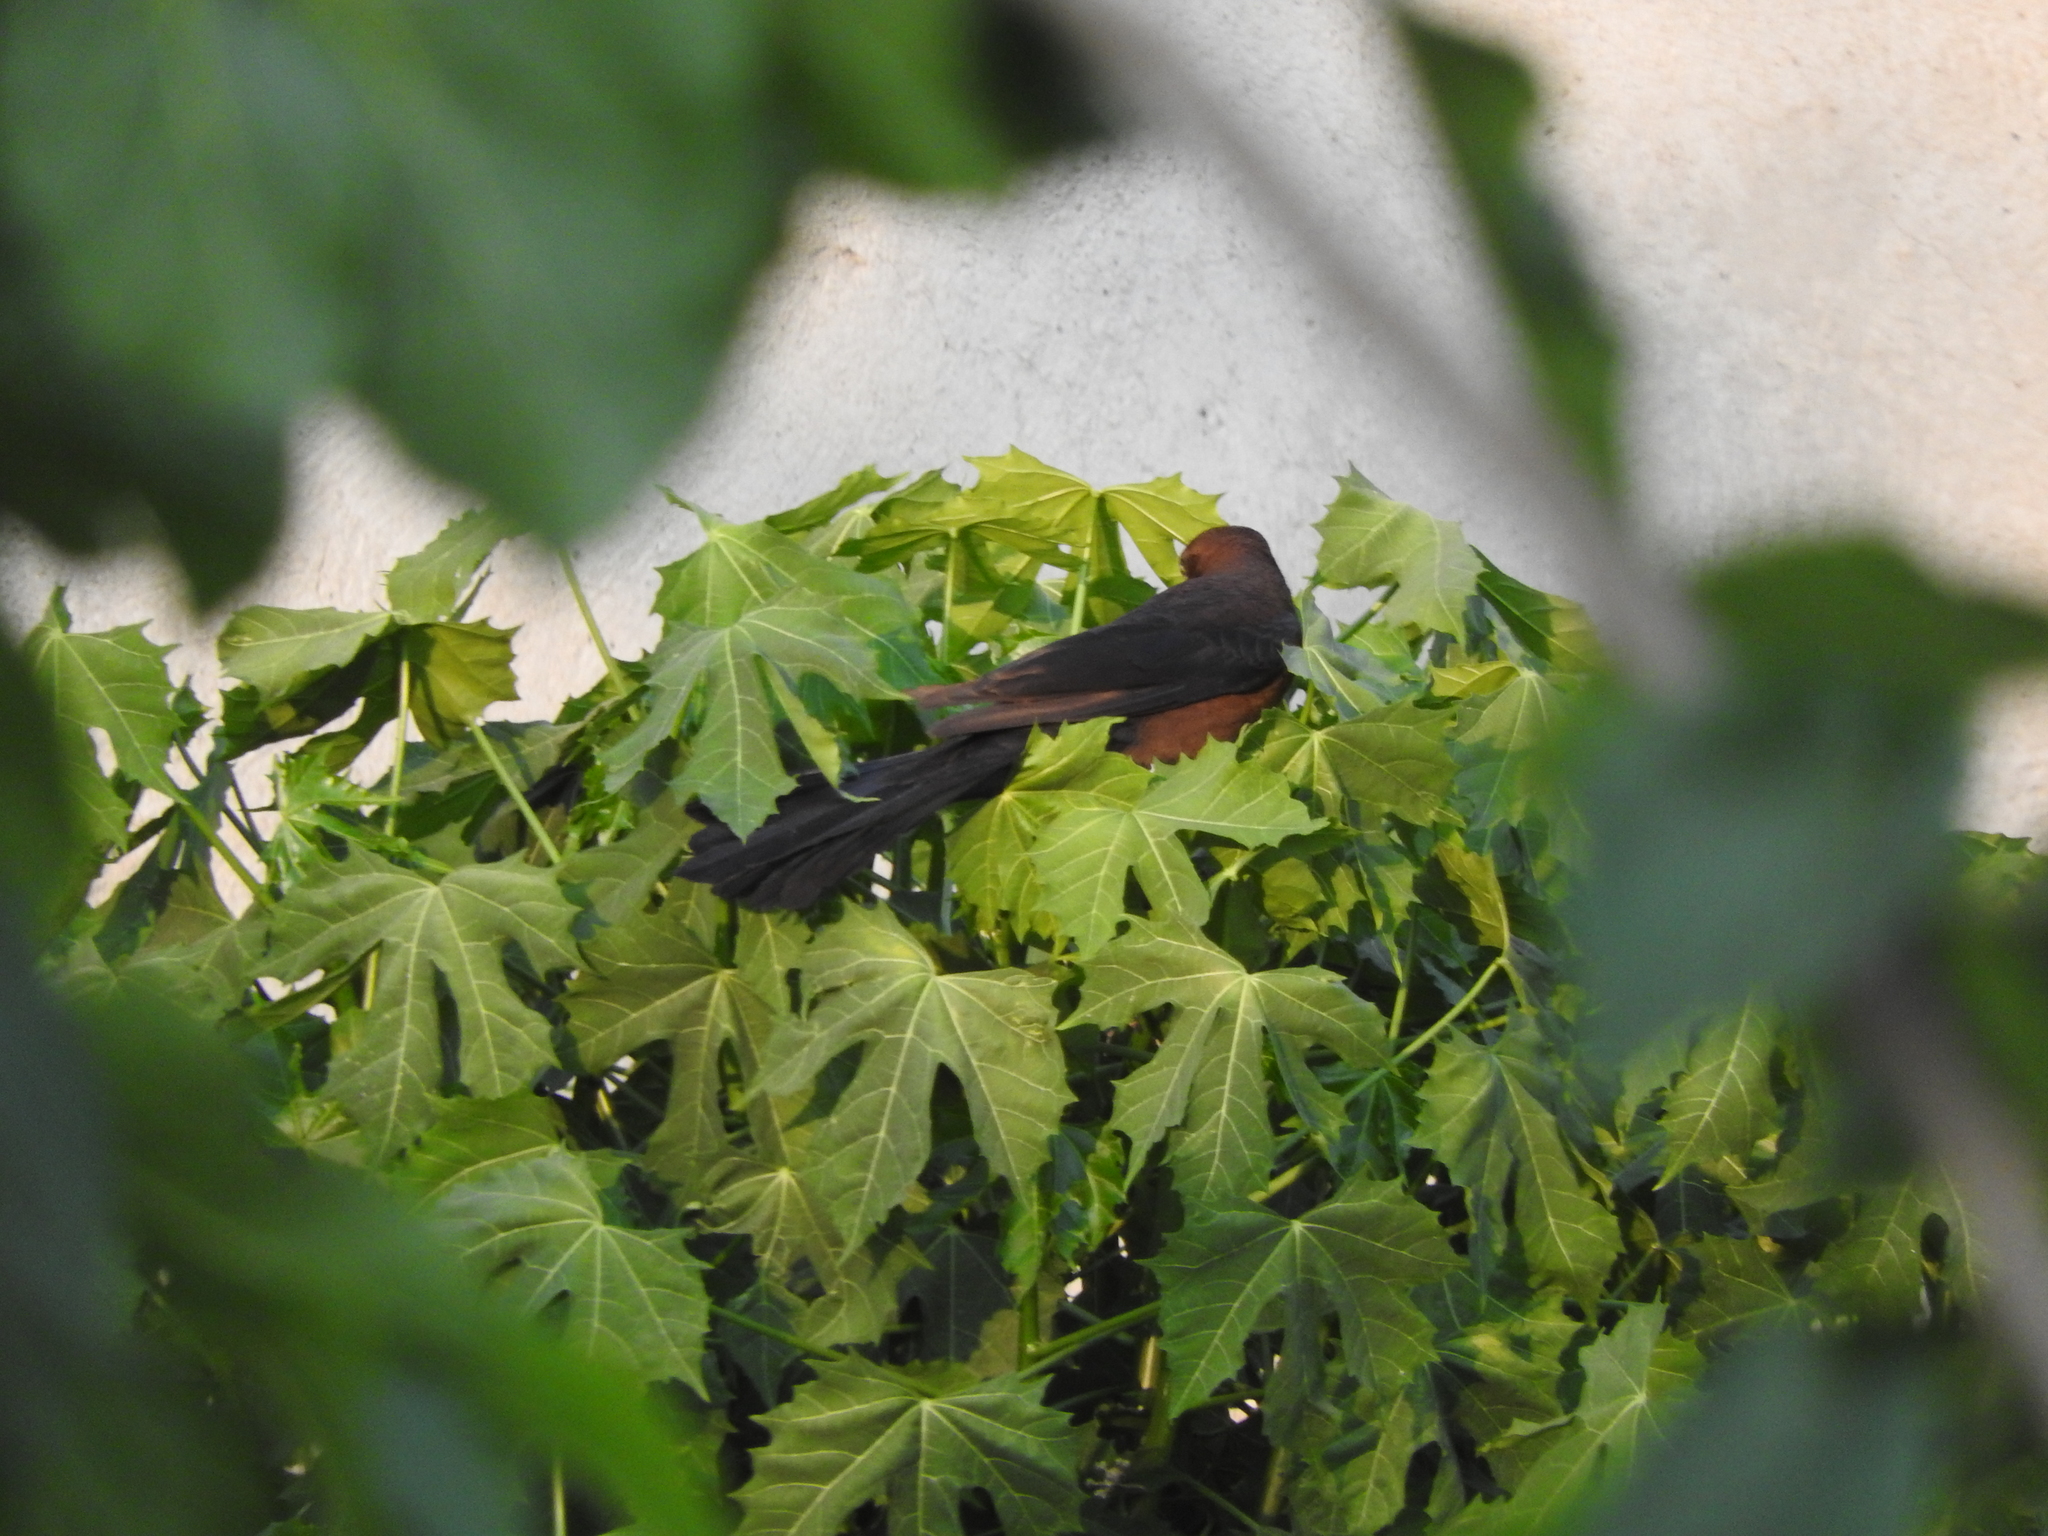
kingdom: Animalia
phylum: Chordata
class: Aves
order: Passeriformes
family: Icteridae
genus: Quiscalus
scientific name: Quiscalus mexicanus
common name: Great-tailed grackle
